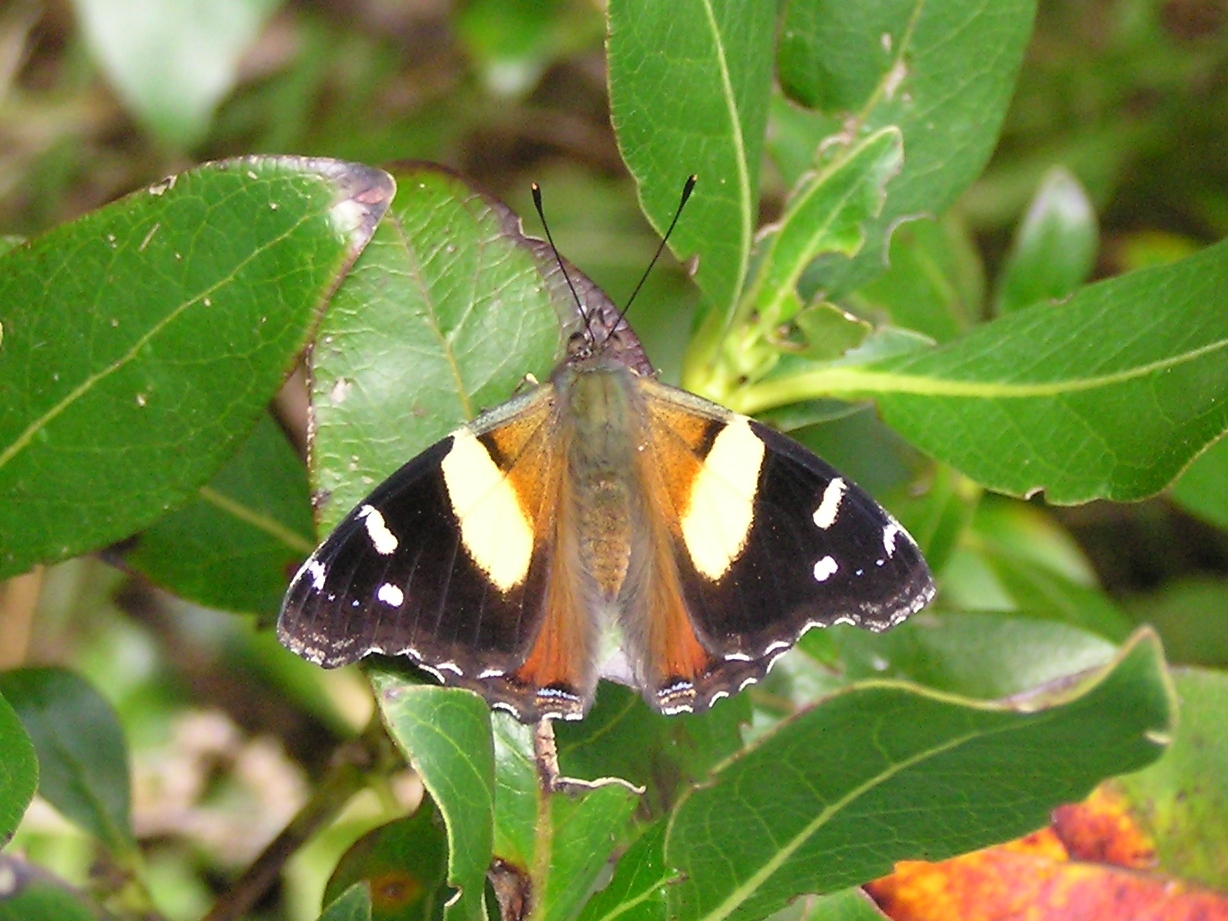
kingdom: Animalia
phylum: Arthropoda
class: Insecta
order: Lepidoptera
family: Nymphalidae
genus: Vanessa
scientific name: Vanessa itea
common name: Yellow admiral
